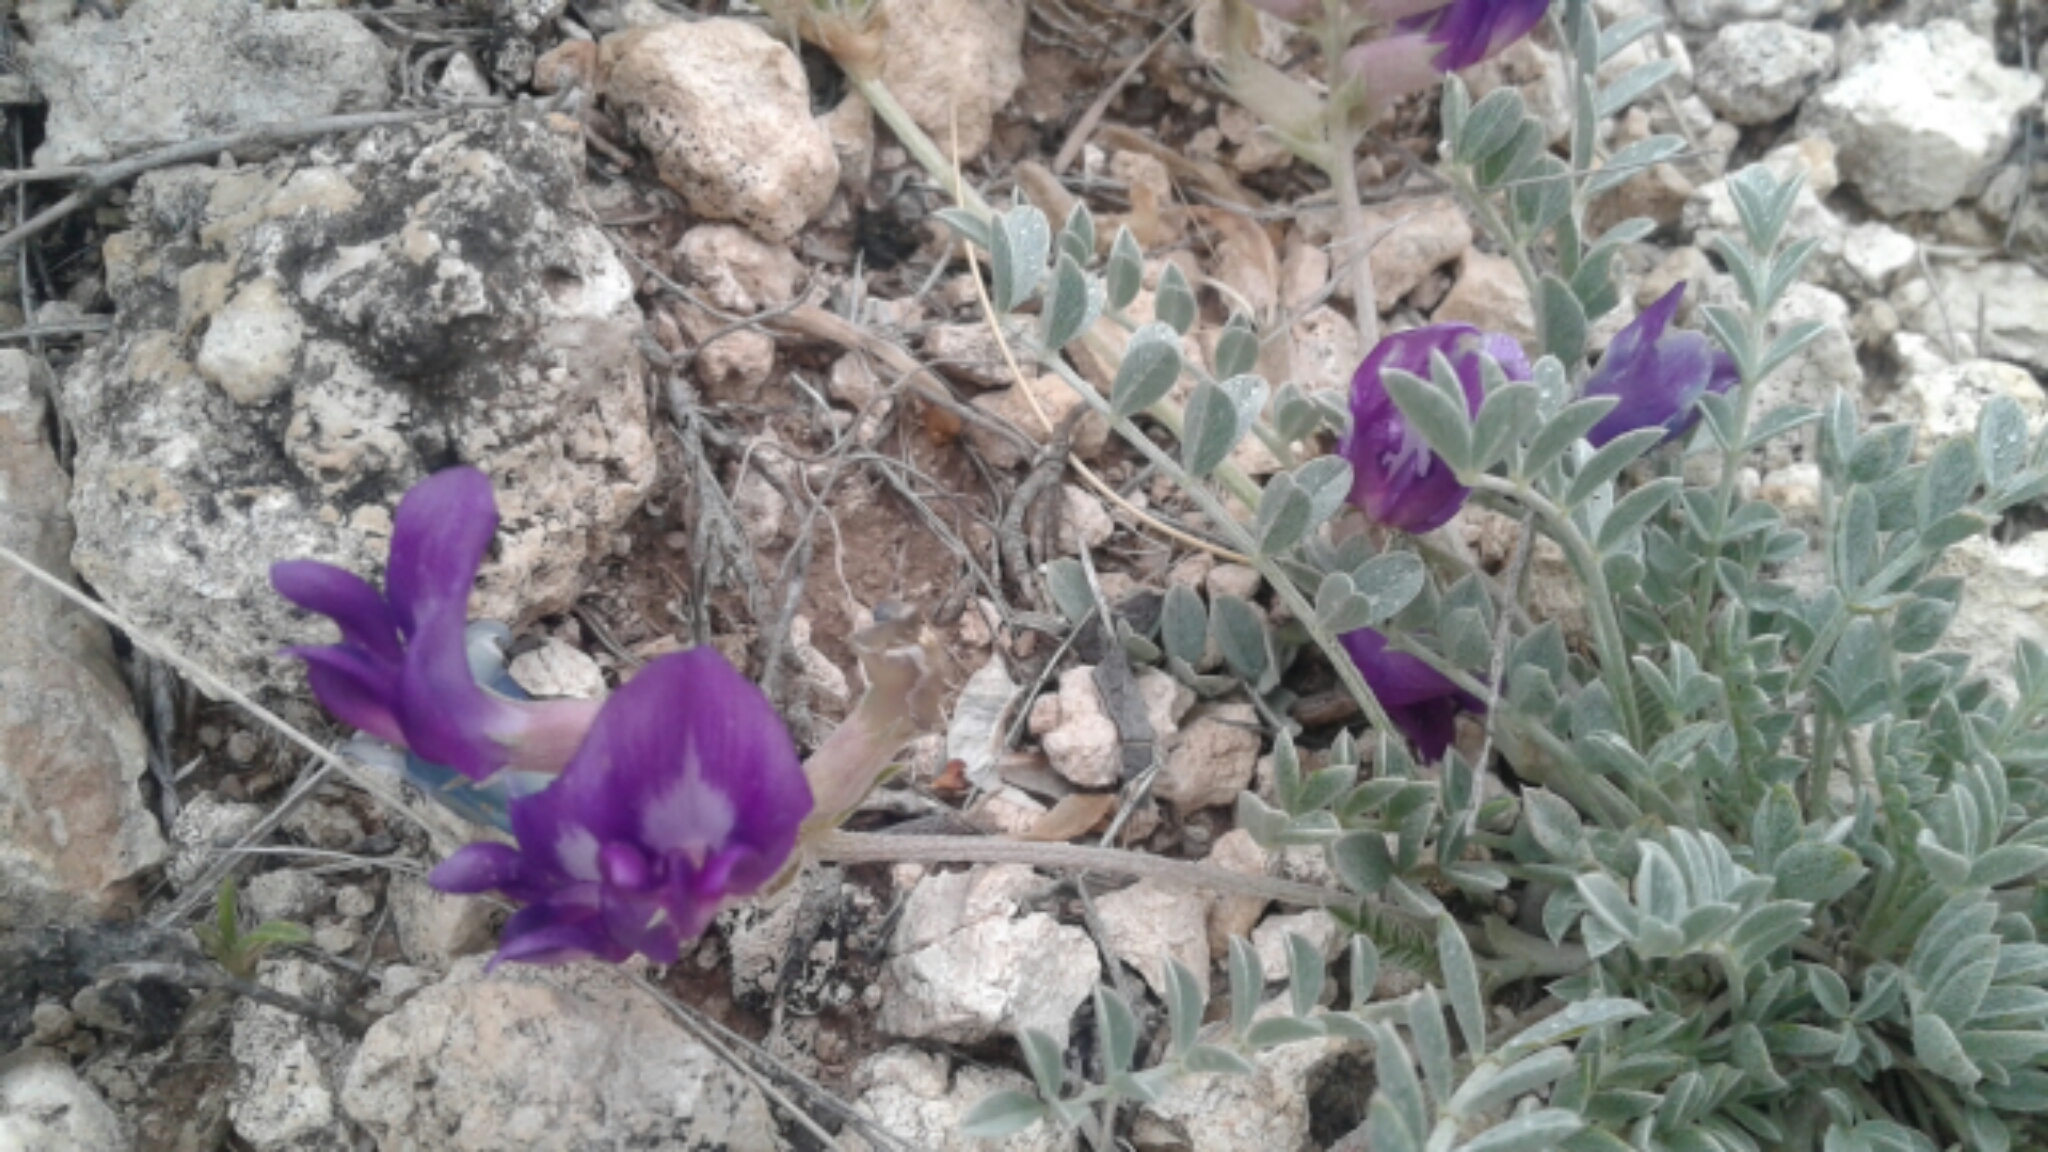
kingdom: Plantae
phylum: Tracheophyta
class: Magnoliopsida
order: Fabales
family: Fabaceae
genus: Astragalus
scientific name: Astragalus missouriensis
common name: Missouri milk-vetch
